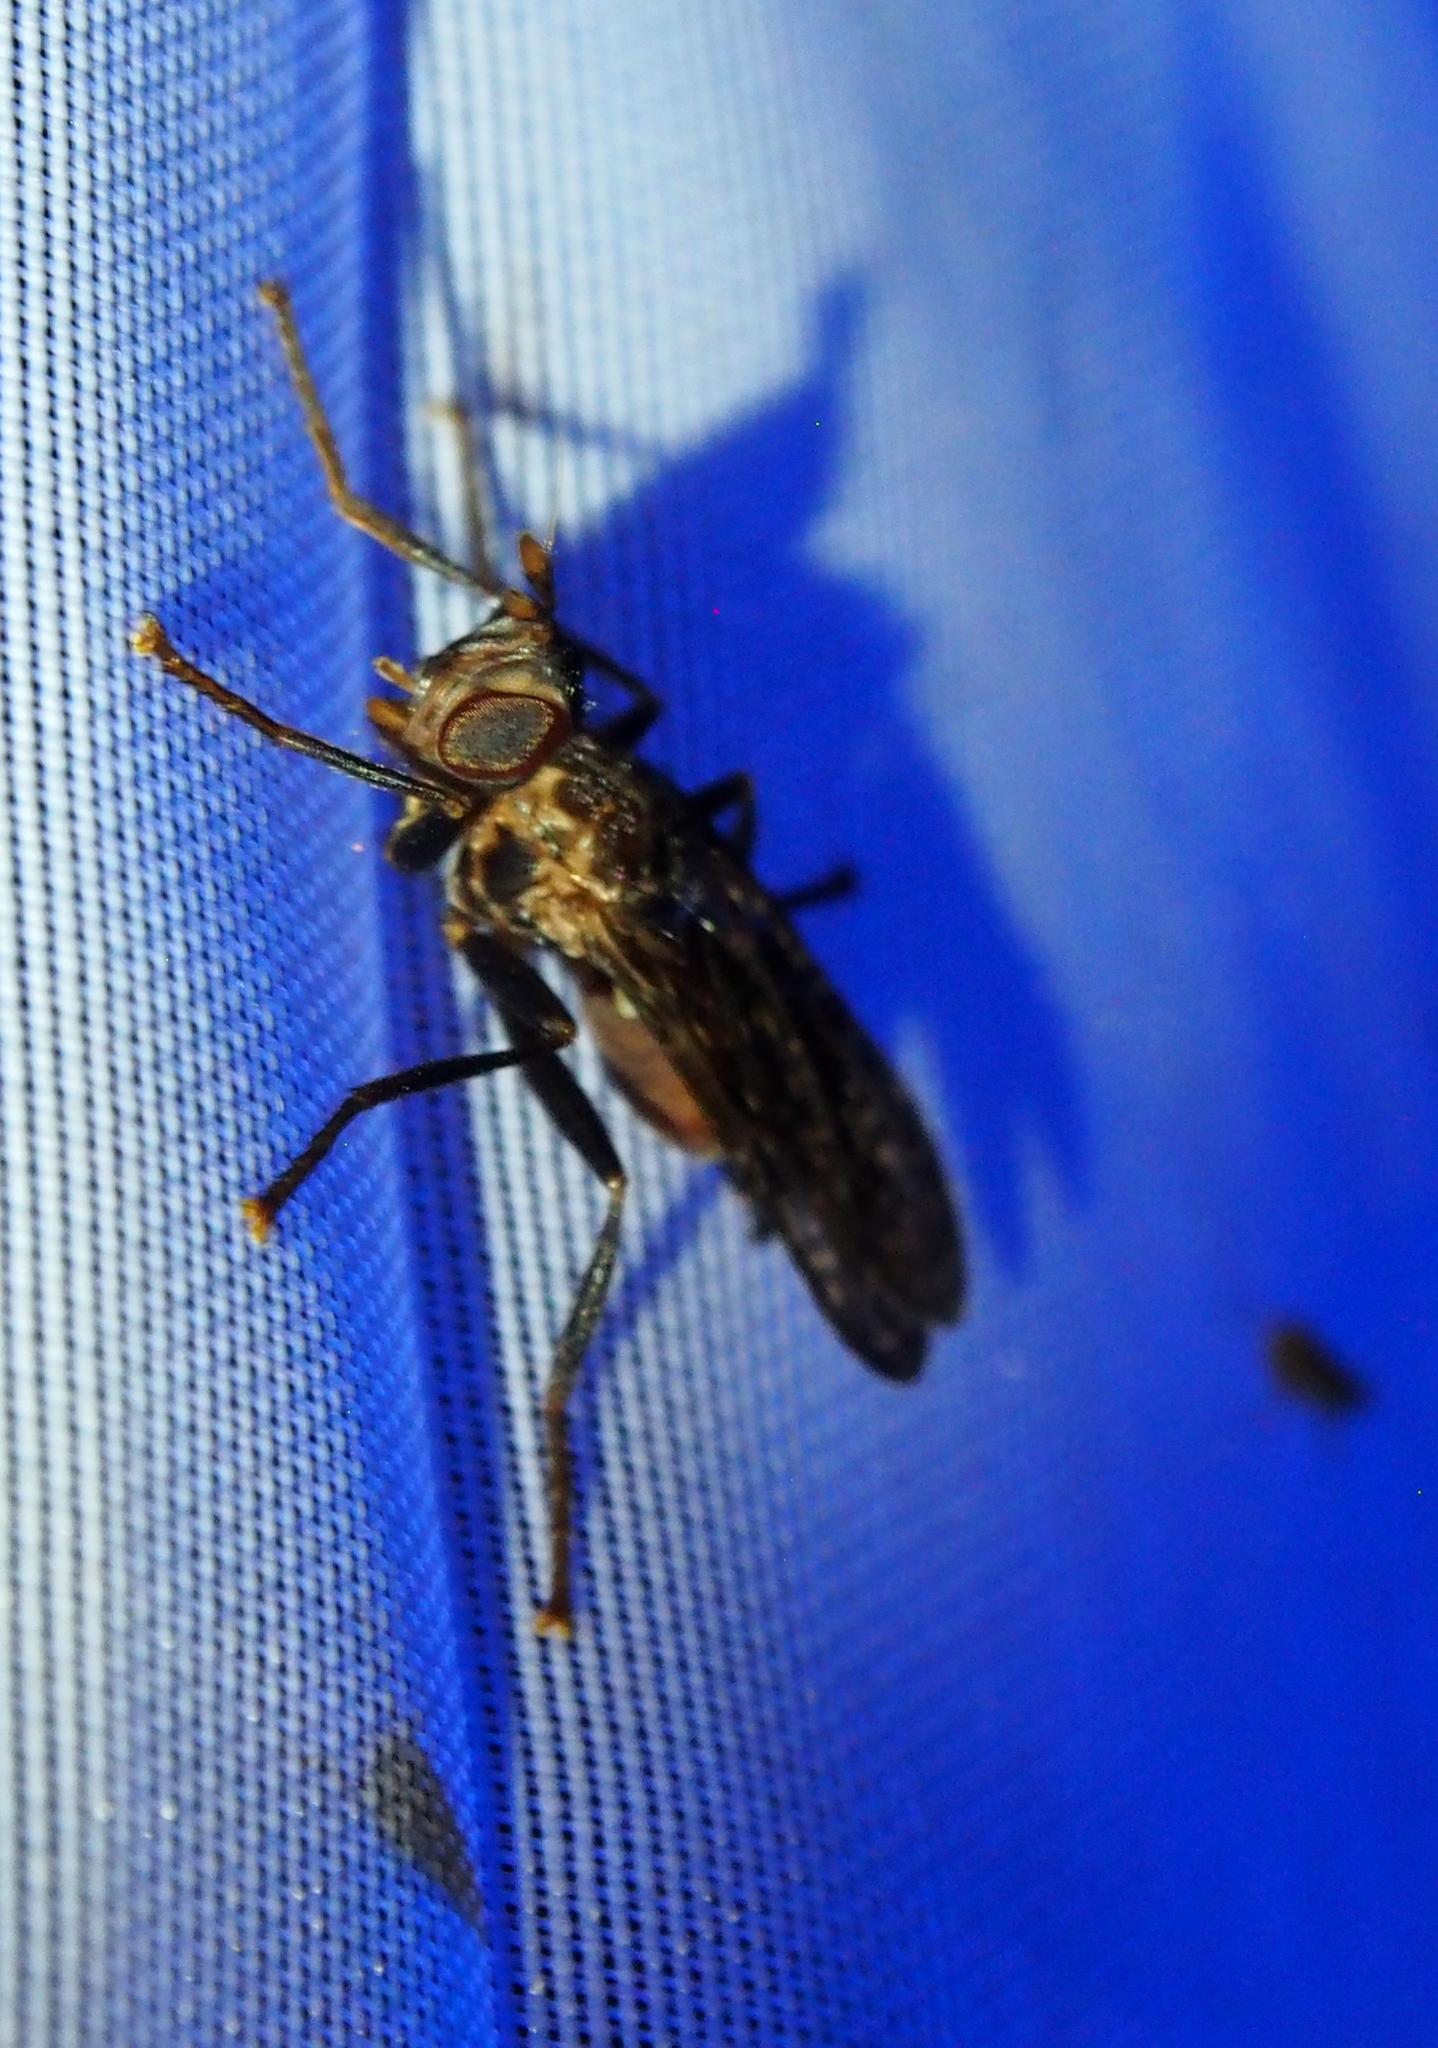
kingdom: Animalia
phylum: Arthropoda
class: Insecta
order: Diptera
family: Pyrgotidae
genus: Pyrgota
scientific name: Pyrgota valida
